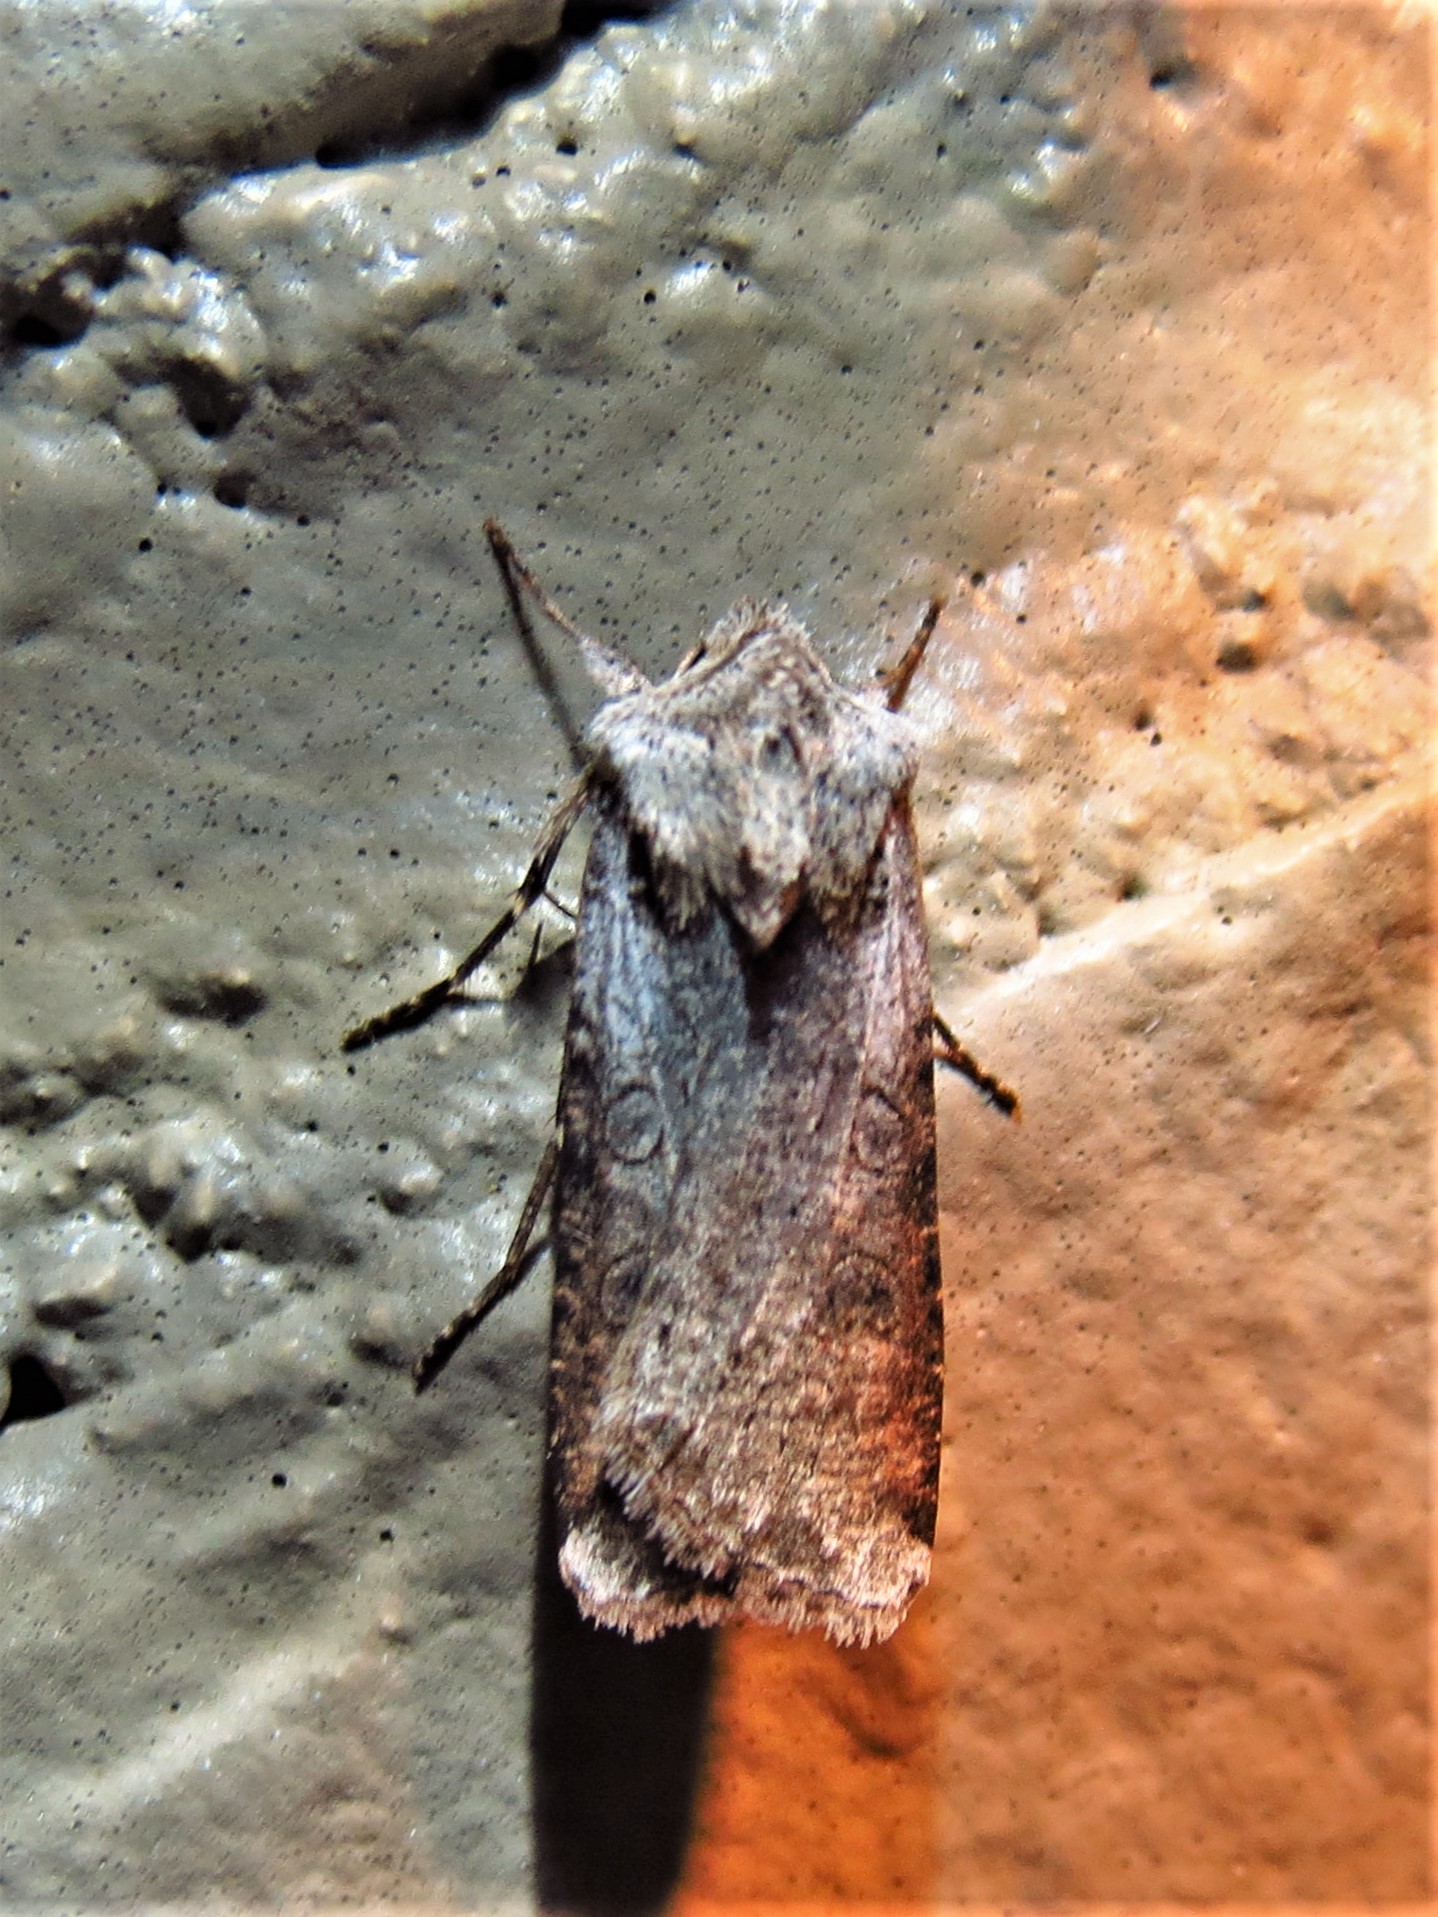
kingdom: Animalia
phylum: Arthropoda
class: Insecta
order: Lepidoptera
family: Noctuidae
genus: Peridroma
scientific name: Peridroma saucia
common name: Pearly underwing
